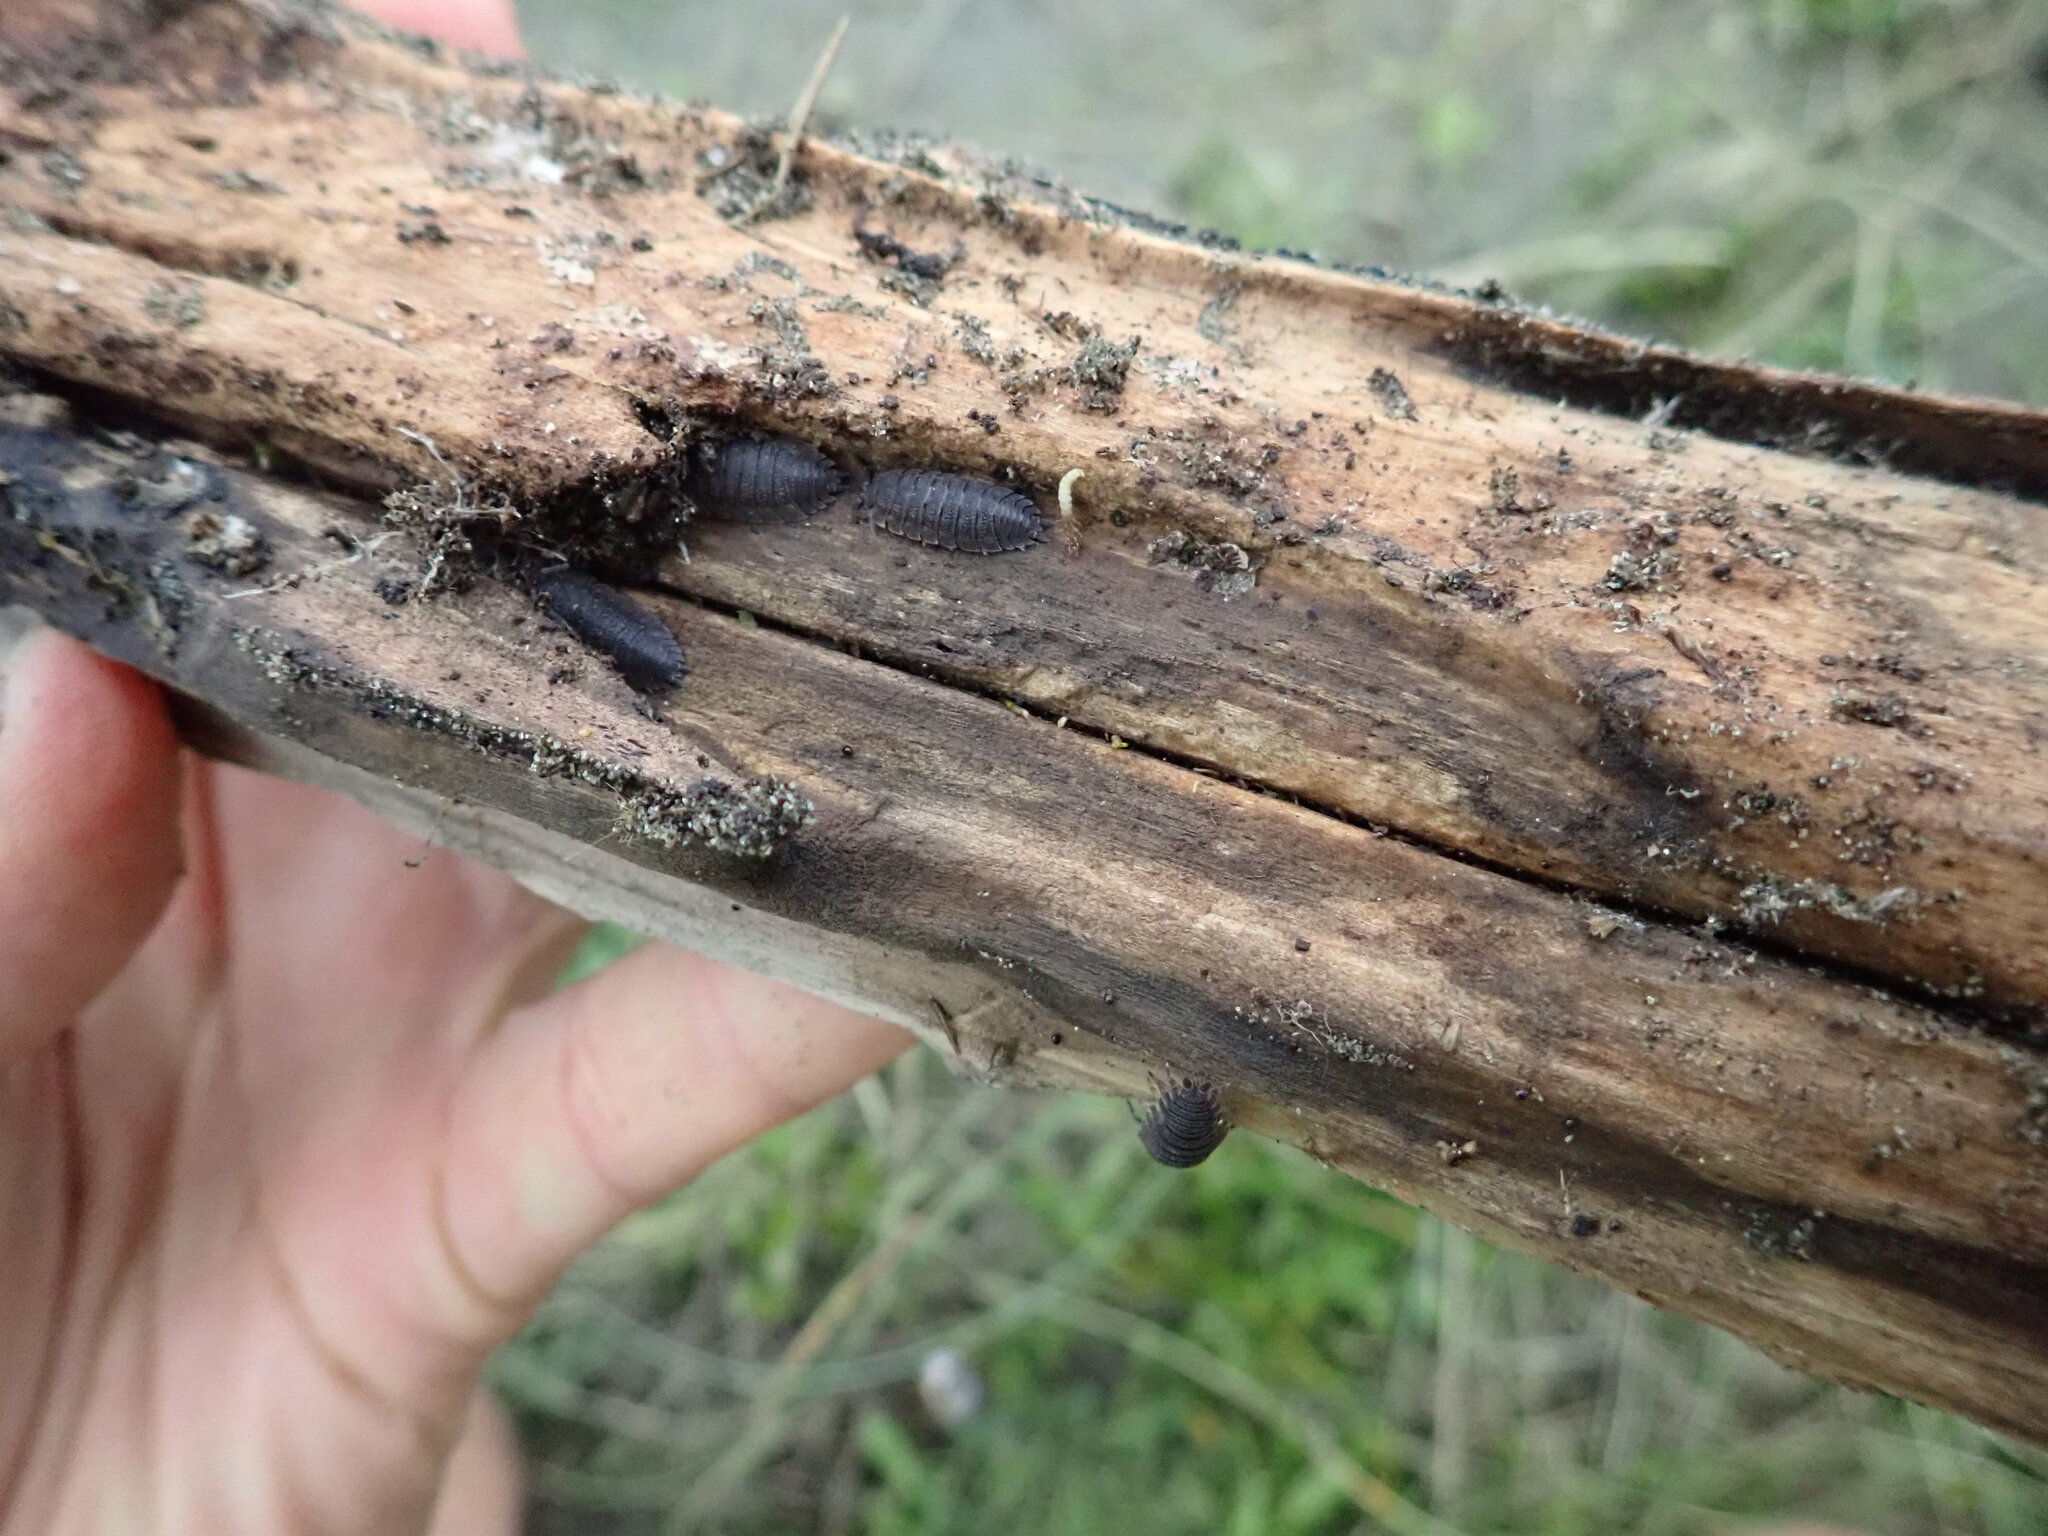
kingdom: Animalia
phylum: Arthropoda
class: Malacostraca
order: Isopoda
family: Porcellionidae
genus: Porcellio
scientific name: Porcellio scaber
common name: Common rough woodlouse
